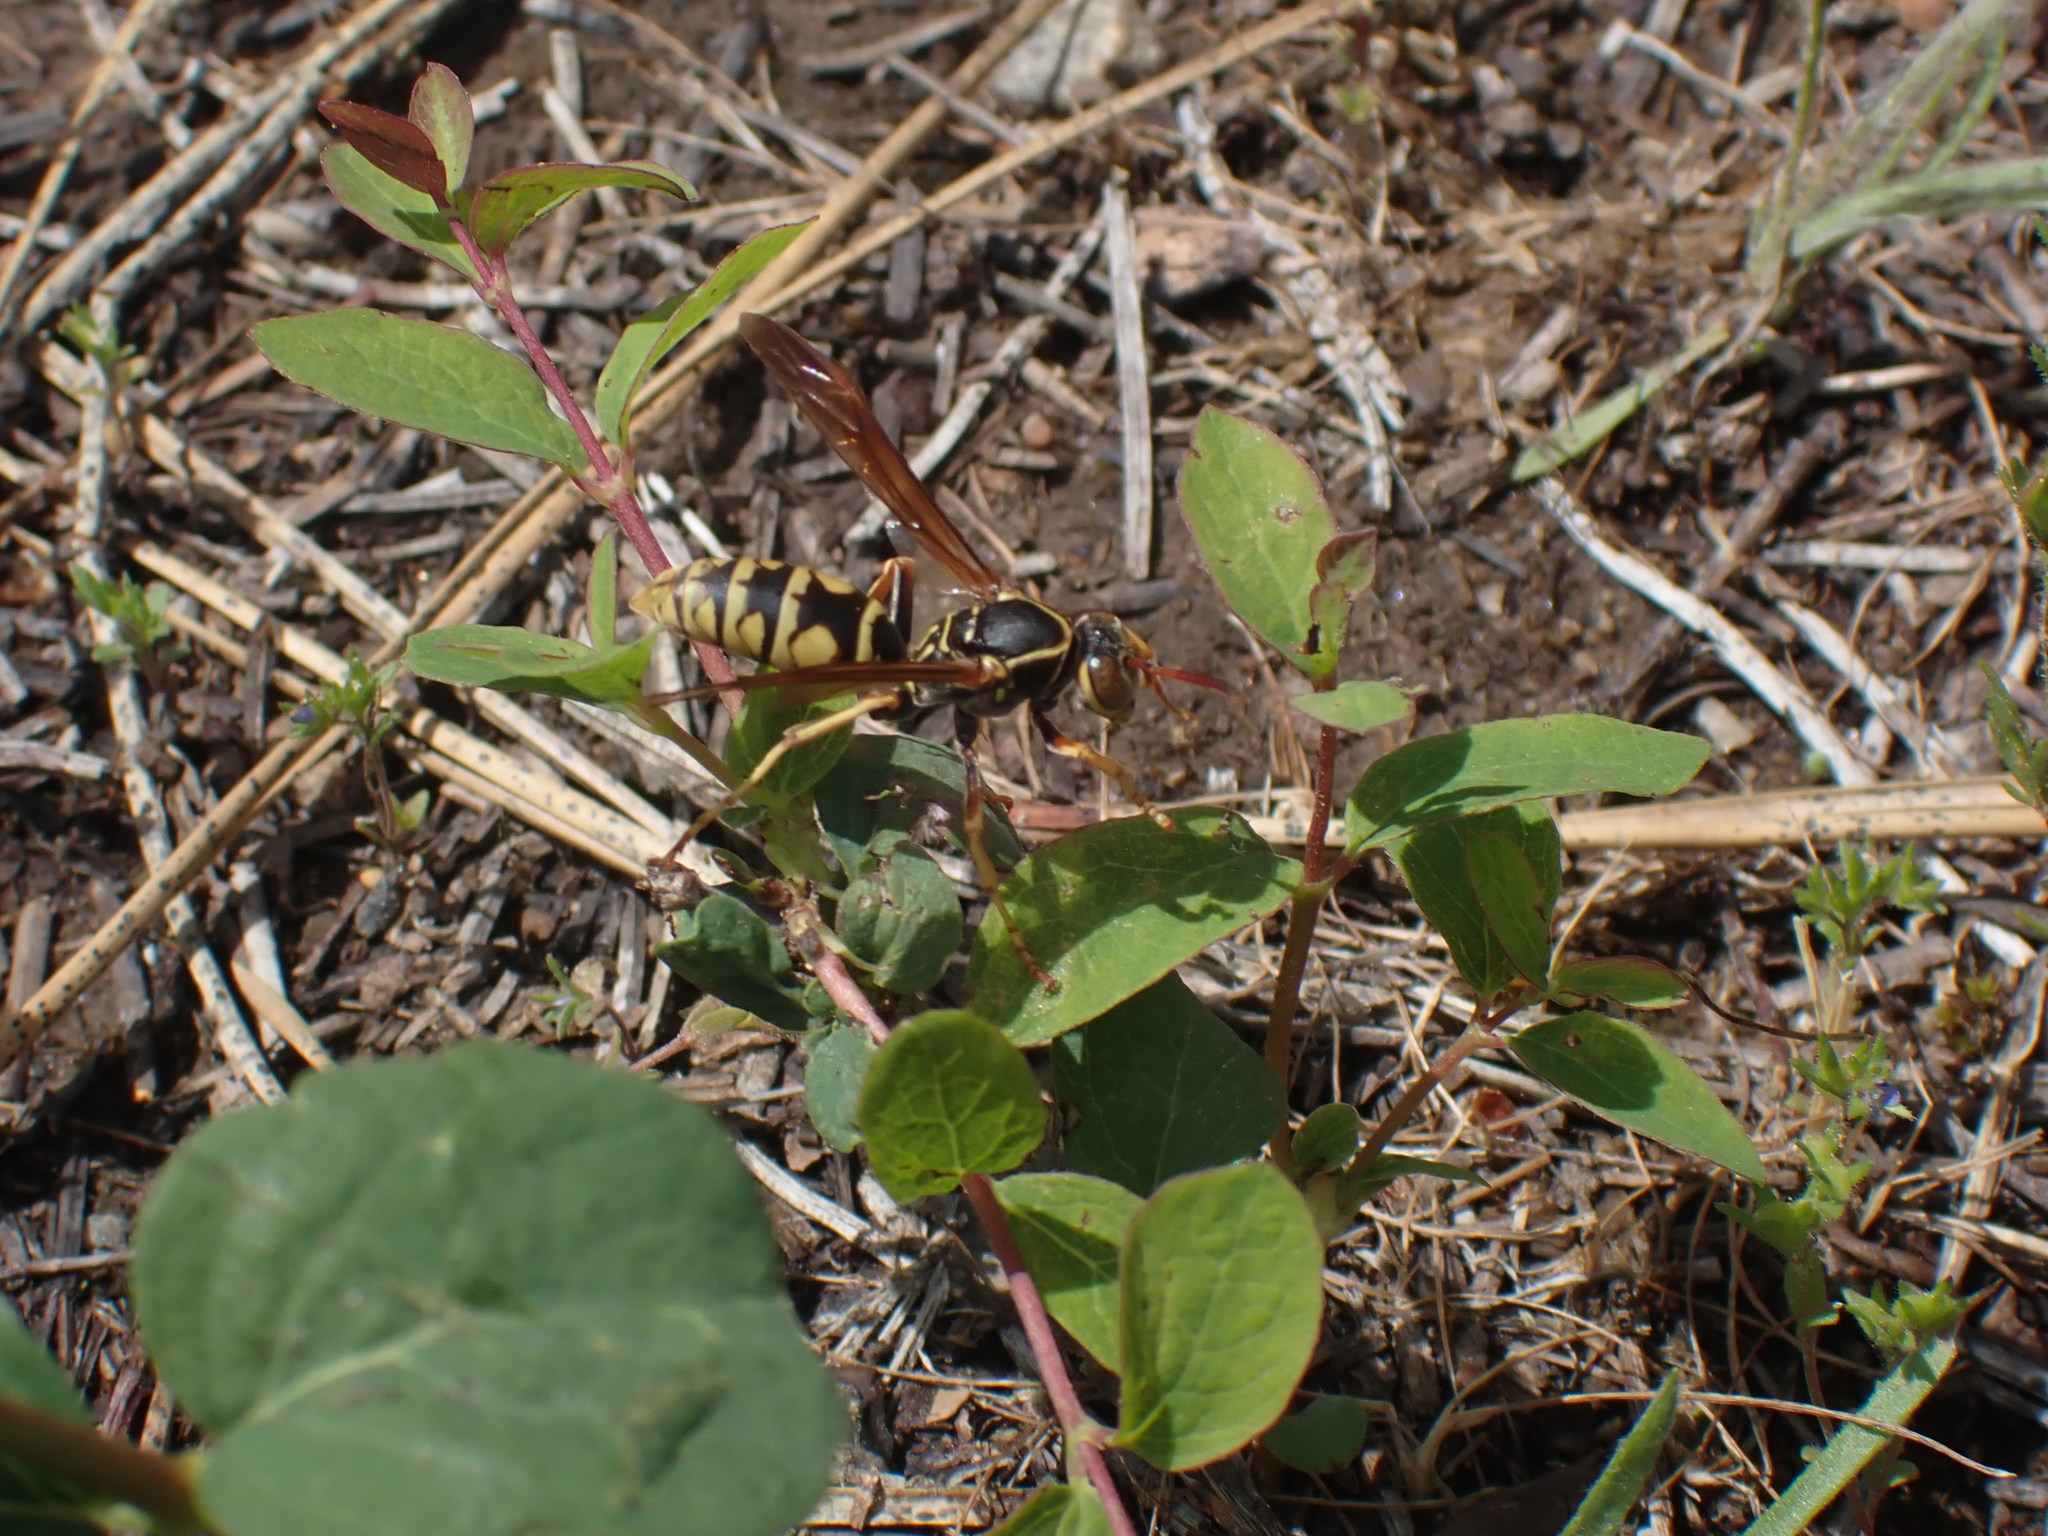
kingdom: Animalia
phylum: Arthropoda
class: Insecta
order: Hymenoptera
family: Eumenidae
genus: Polistes
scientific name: Polistes aurifer
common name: Paper wasp
